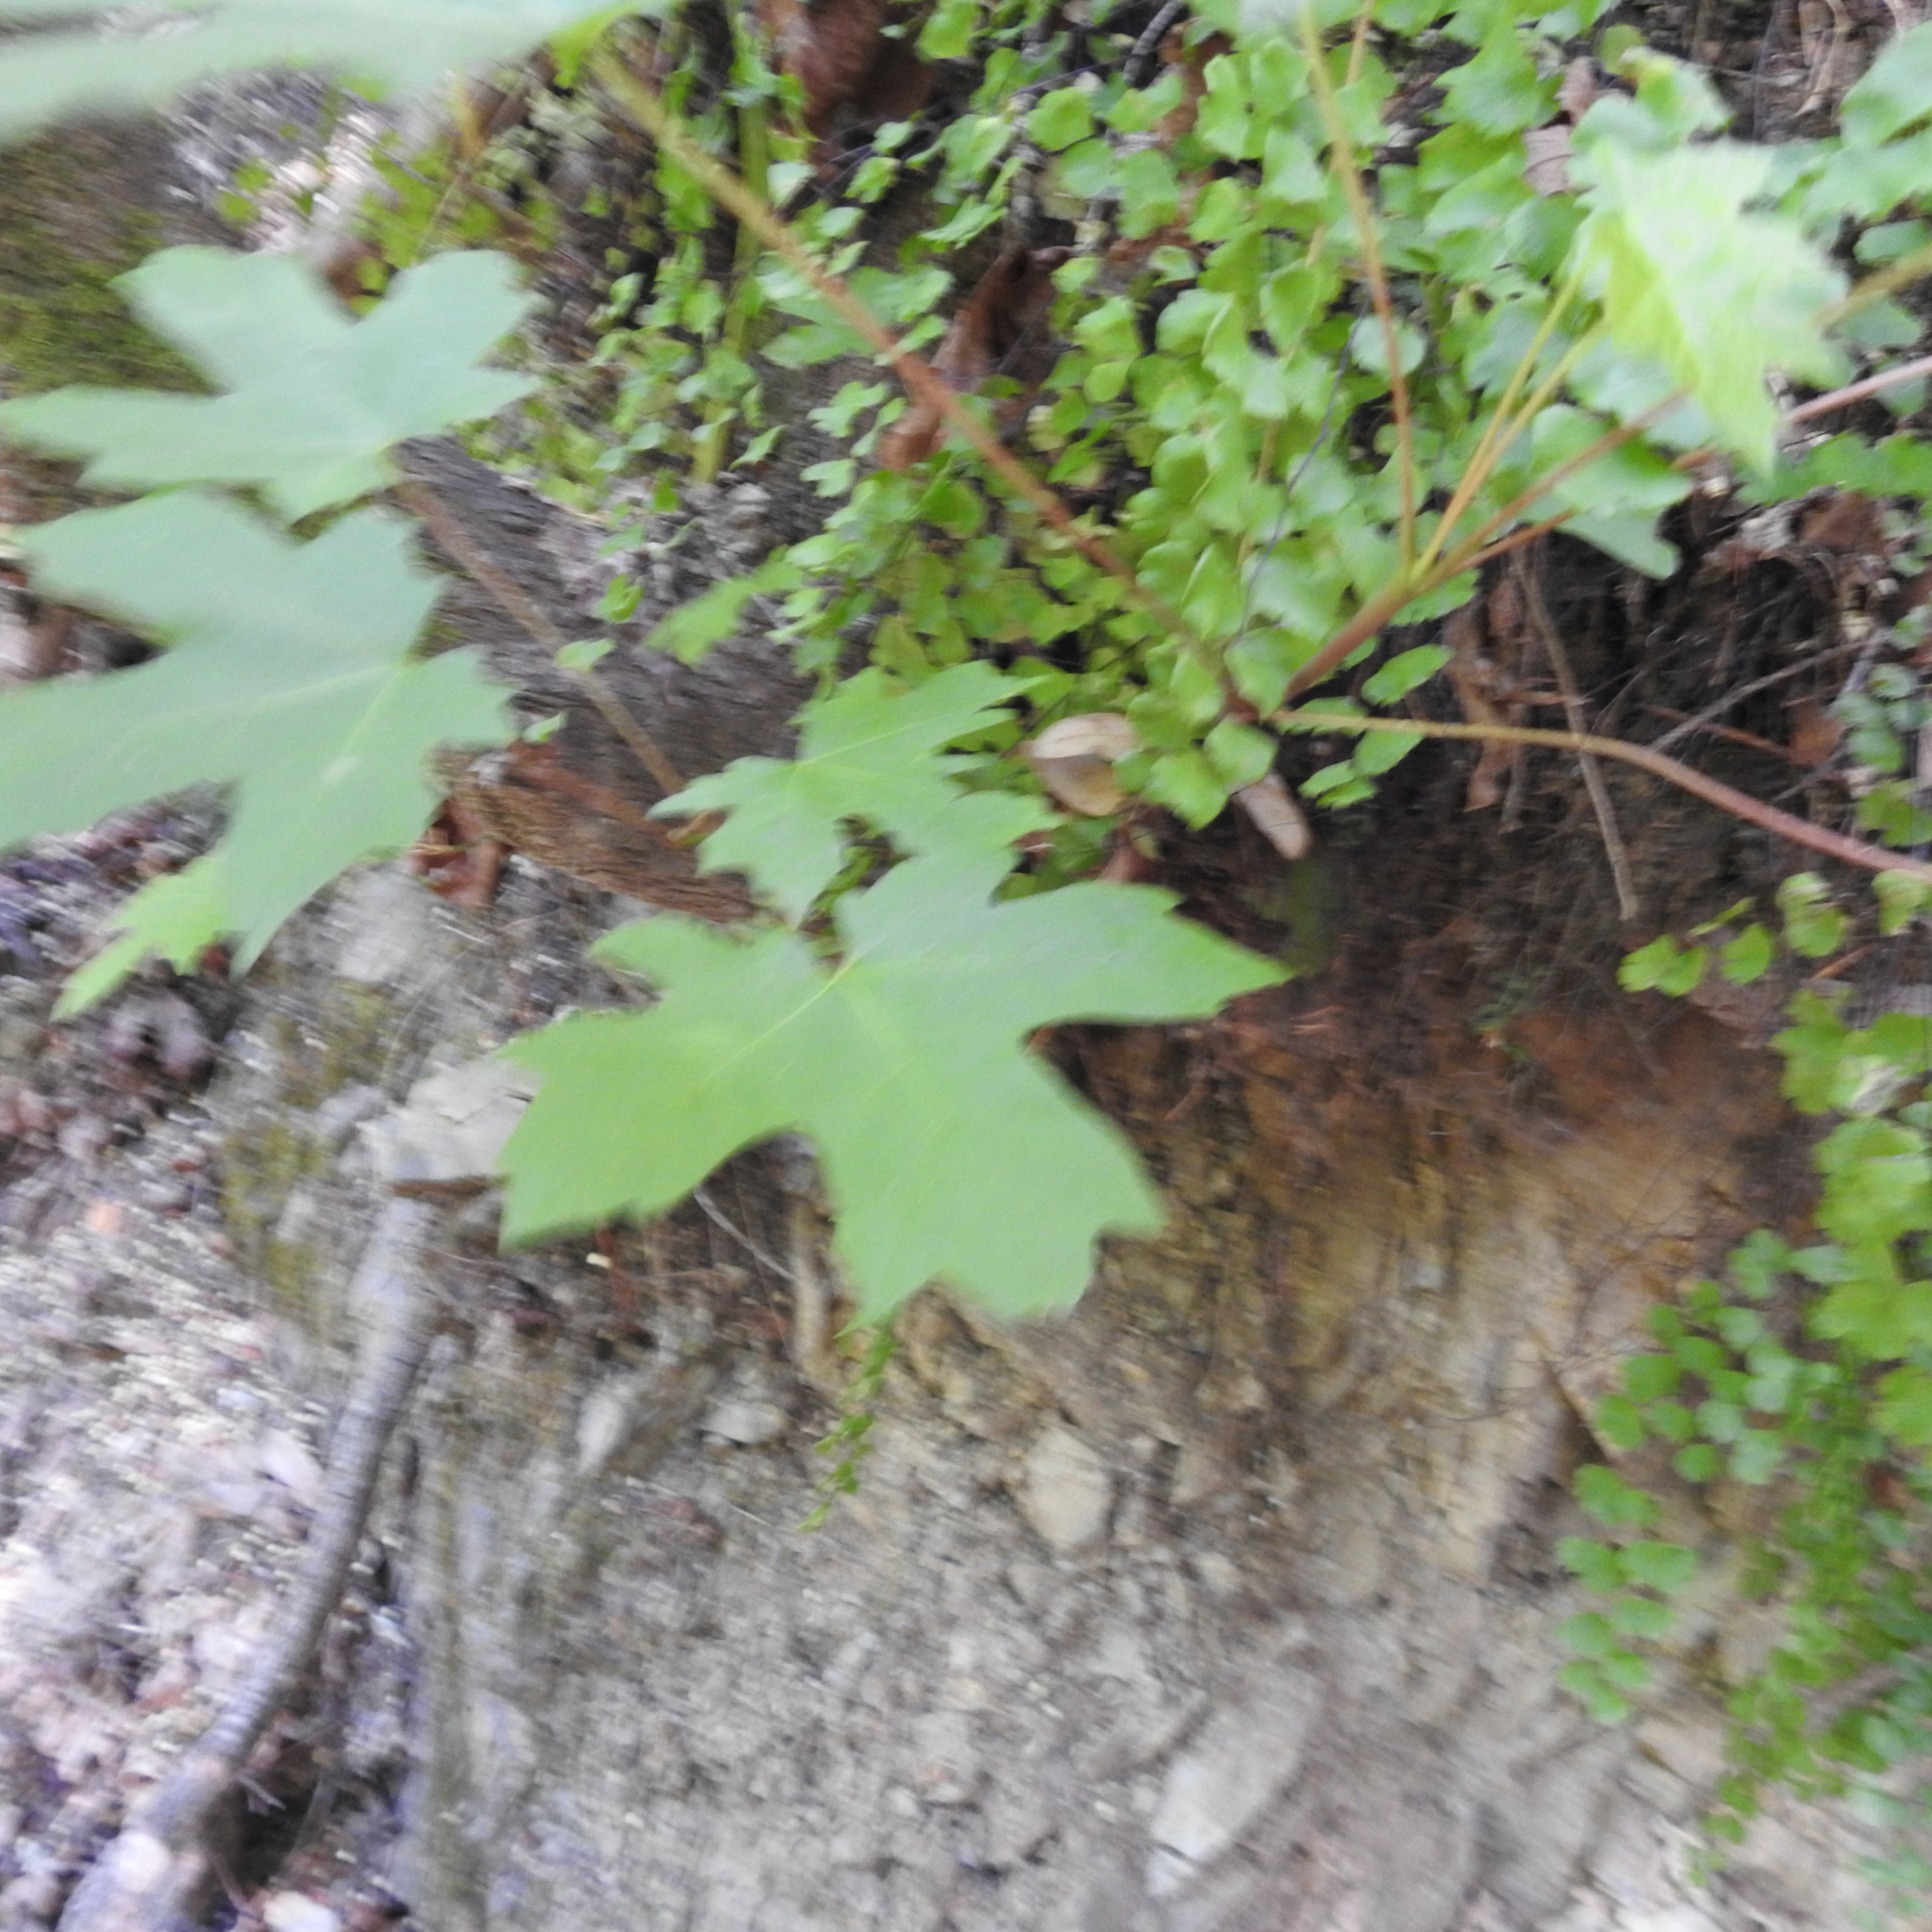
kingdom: Plantae
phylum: Tracheophyta
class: Magnoliopsida
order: Sapindales
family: Sapindaceae
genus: Acer
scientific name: Acer macrophyllum
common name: Oregon maple
